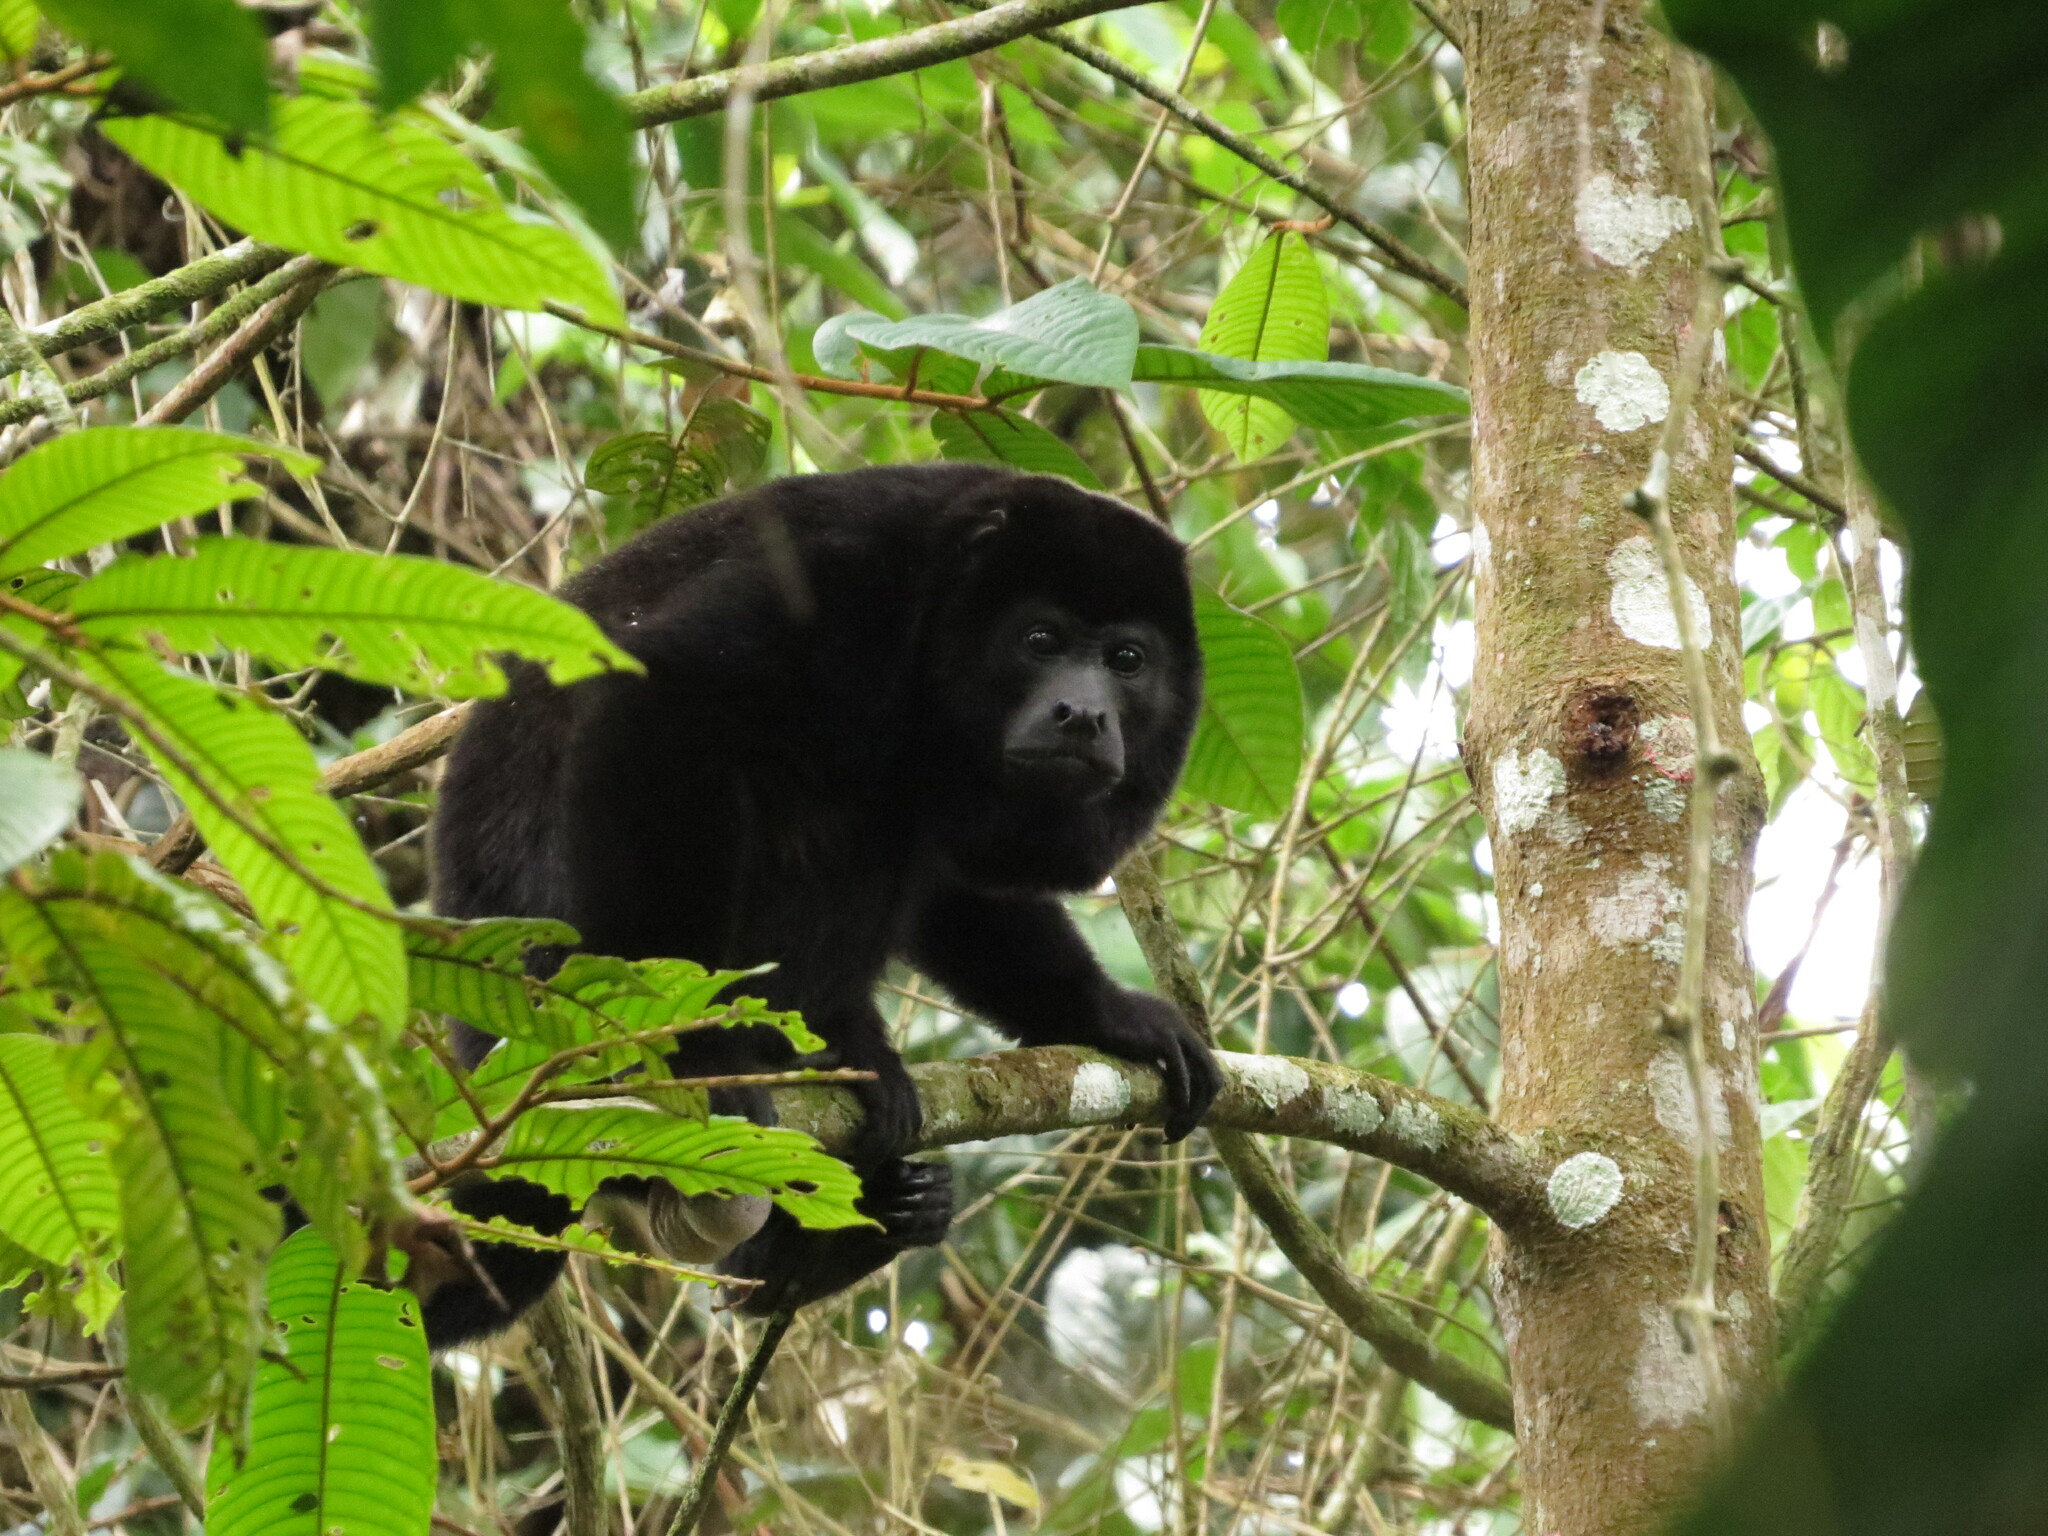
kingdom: Animalia
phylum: Chordata
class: Mammalia
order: Primates
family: Atelidae
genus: Alouatta
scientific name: Alouatta palliata
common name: Mantled howler
